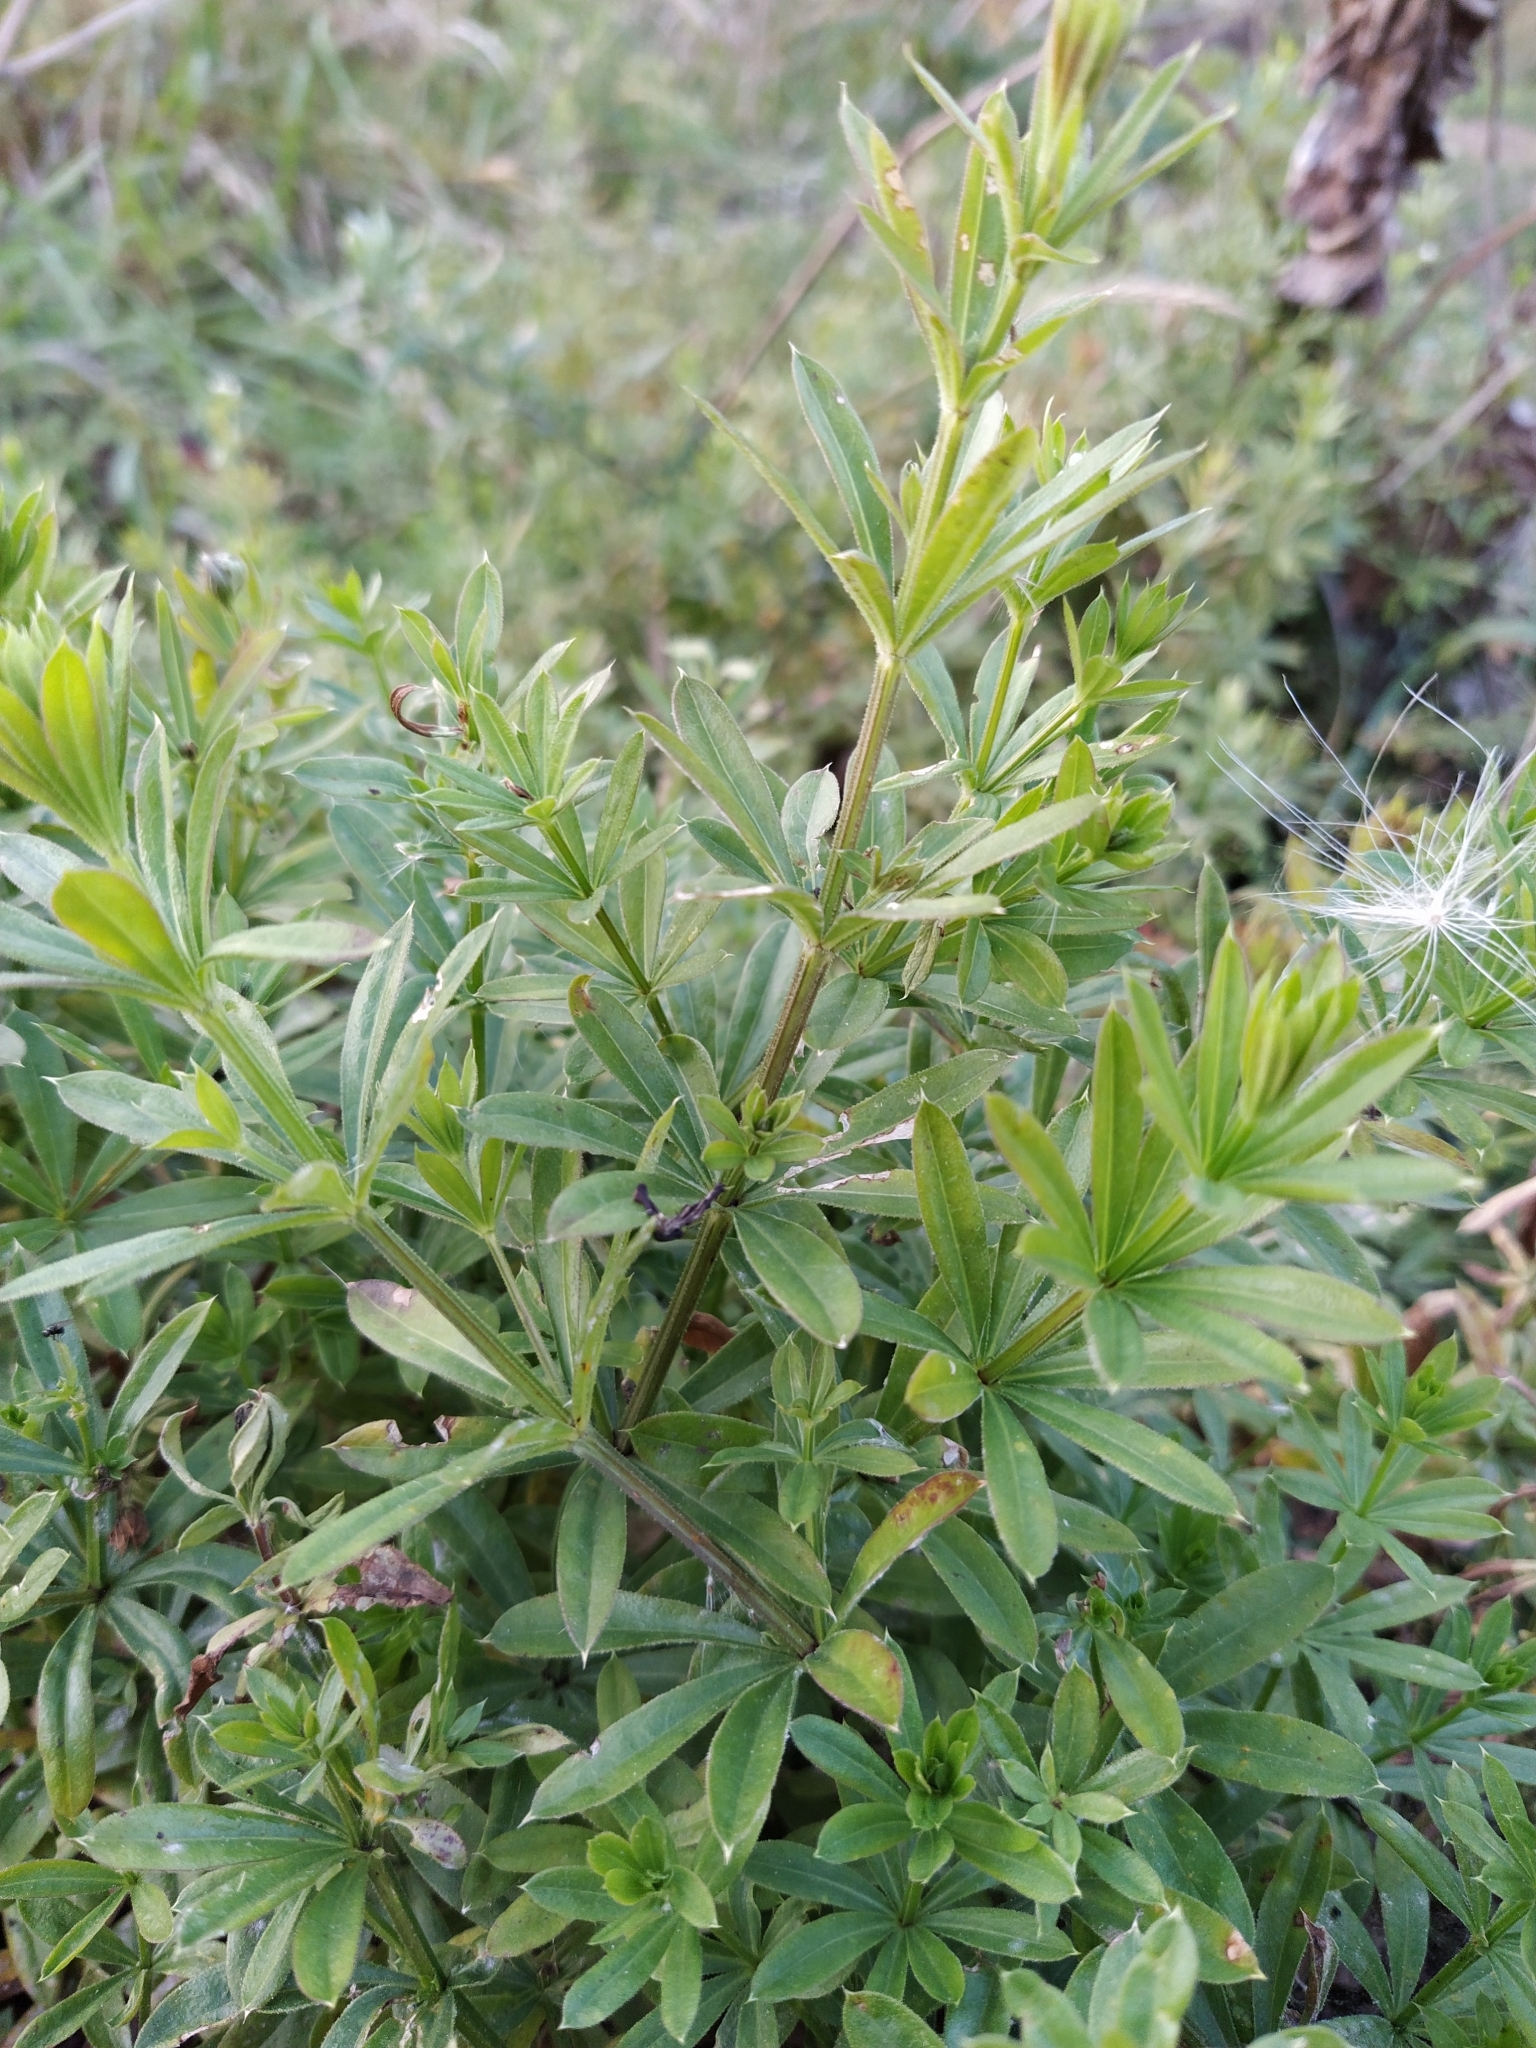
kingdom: Plantae
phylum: Tracheophyta
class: Magnoliopsida
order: Gentianales
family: Rubiaceae
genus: Galium
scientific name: Galium rivale
